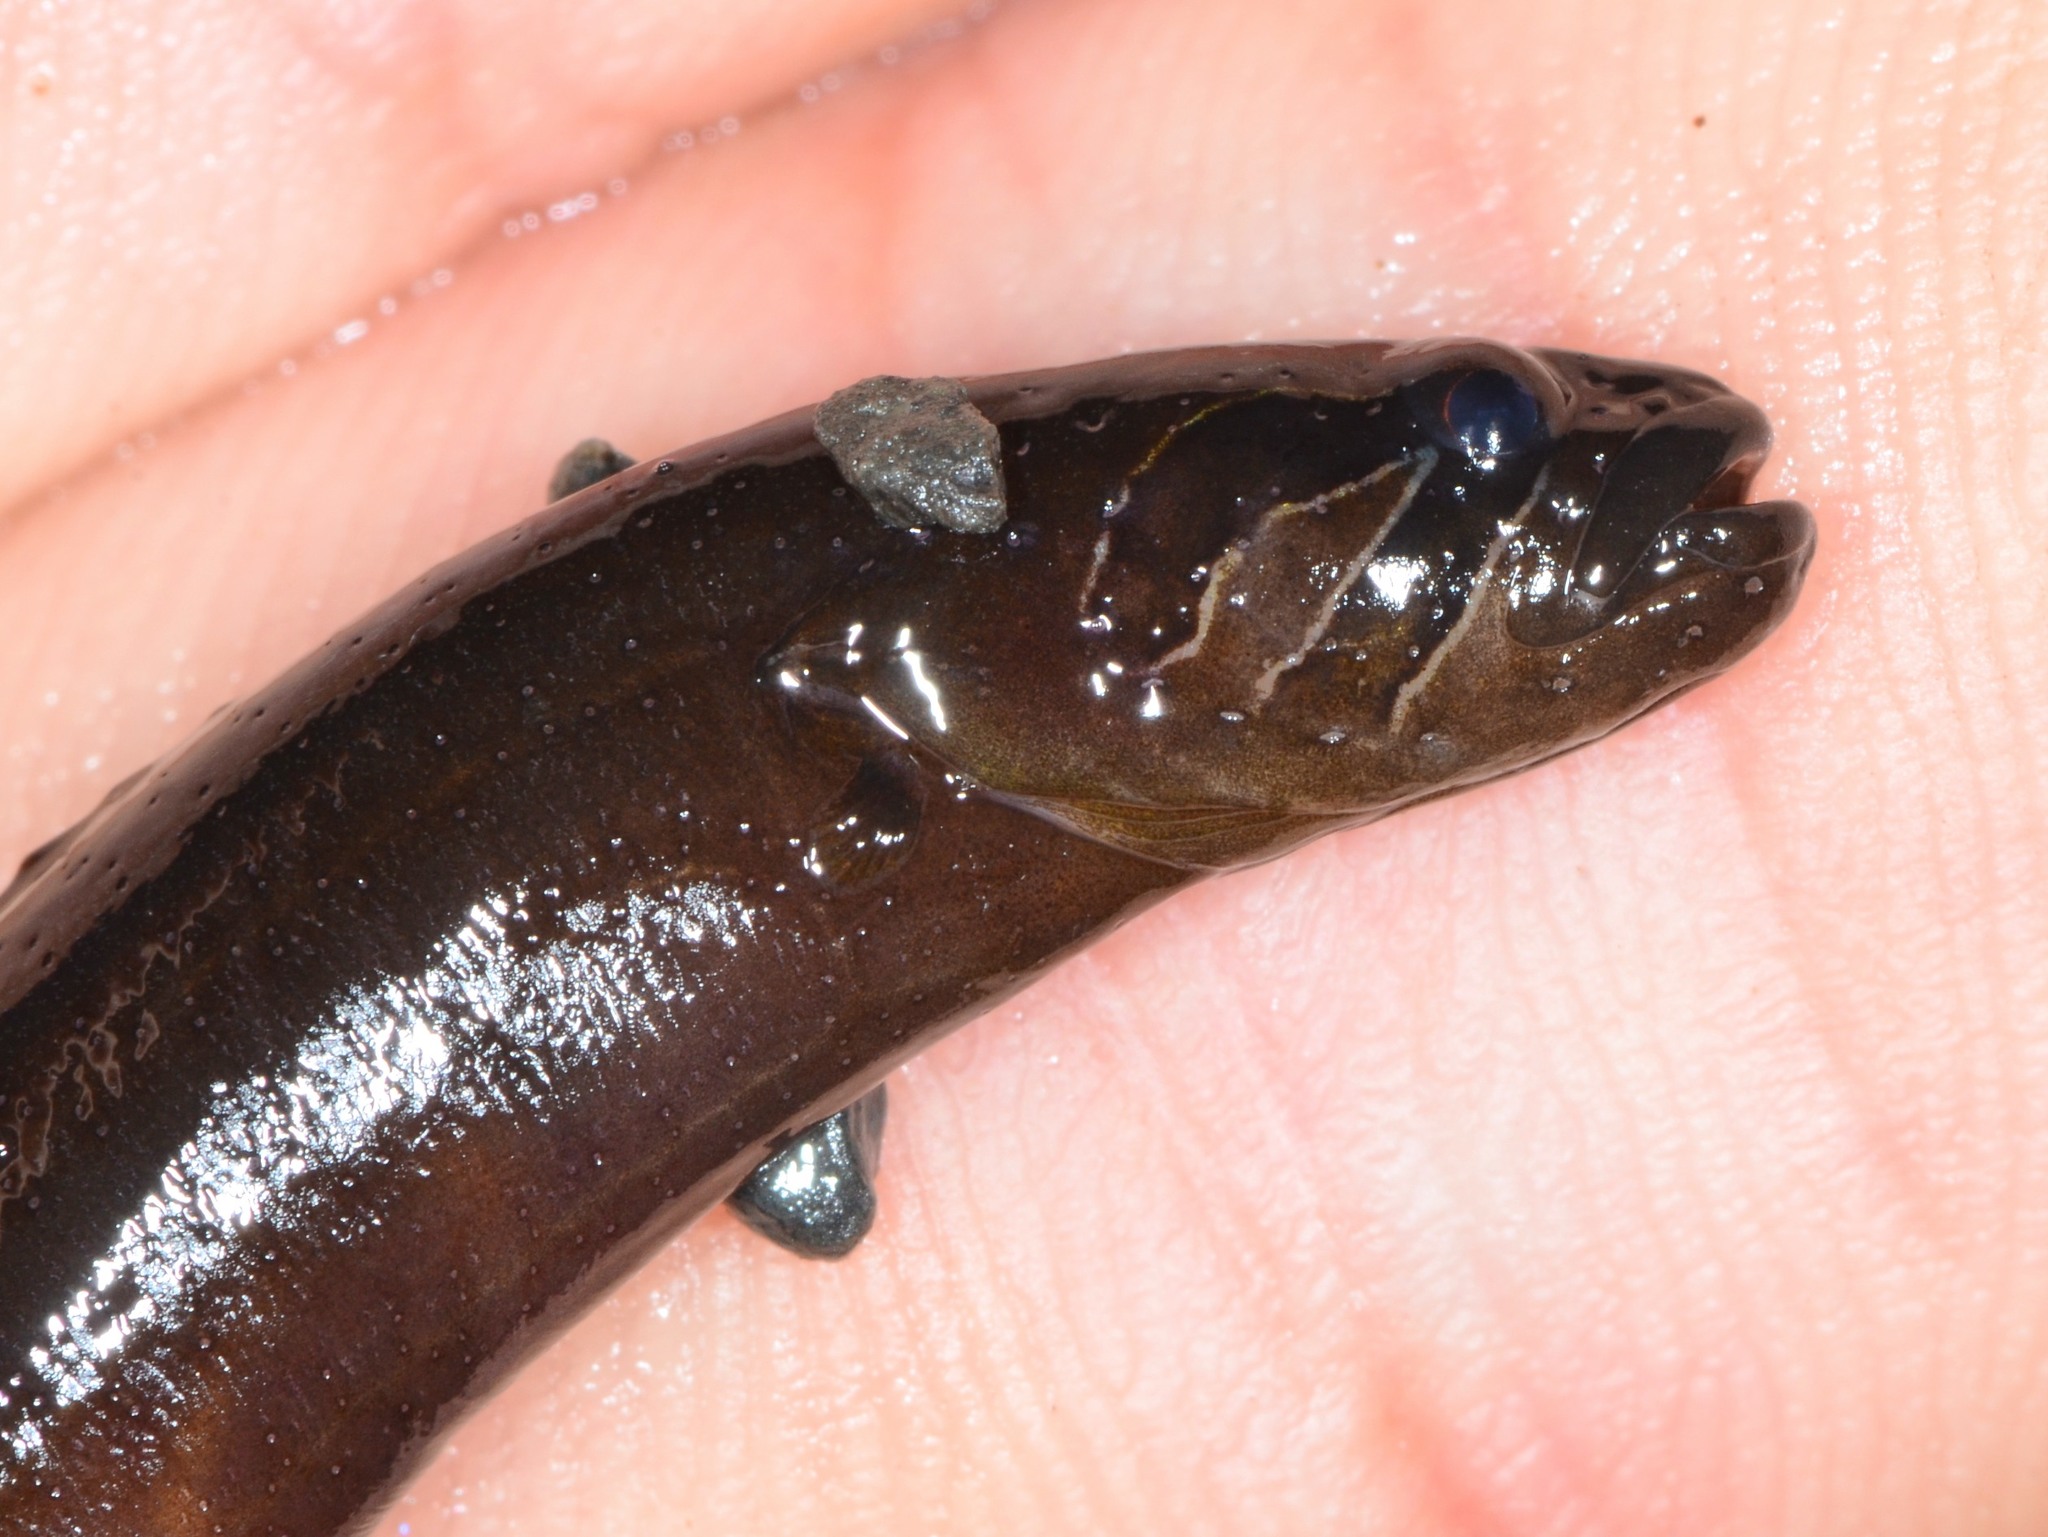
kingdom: Animalia
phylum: Chordata
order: Perciformes
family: Stichaeidae
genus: Xiphister
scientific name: Xiphister atropurpureus
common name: Black prickleback
